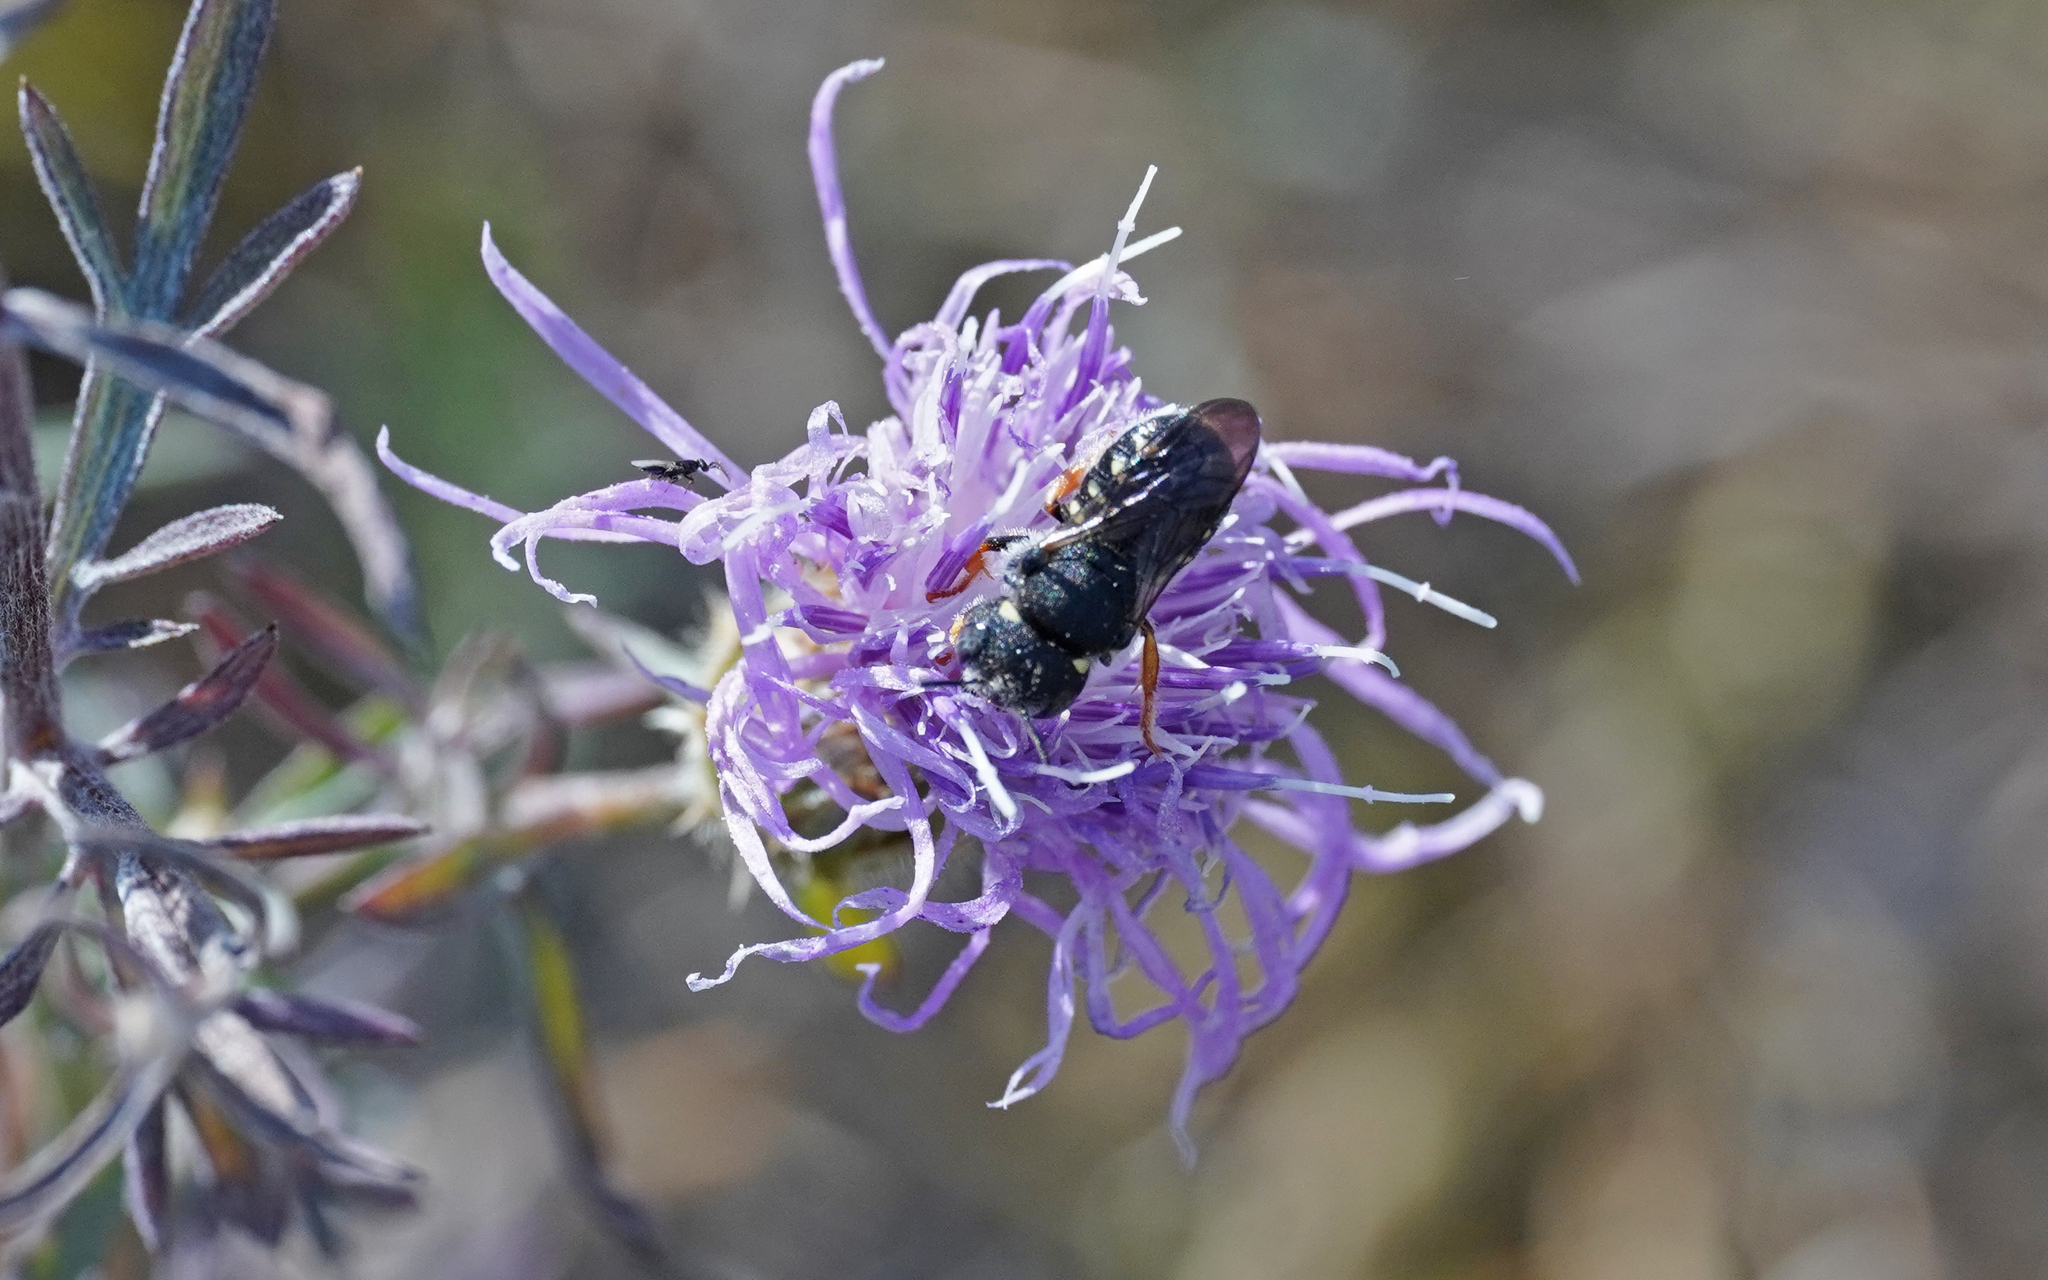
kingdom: Animalia
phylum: Arthropoda
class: Insecta
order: Hymenoptera
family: Megachilidae
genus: Pseudoanthidium
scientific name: Pseudoanthidium nanum
